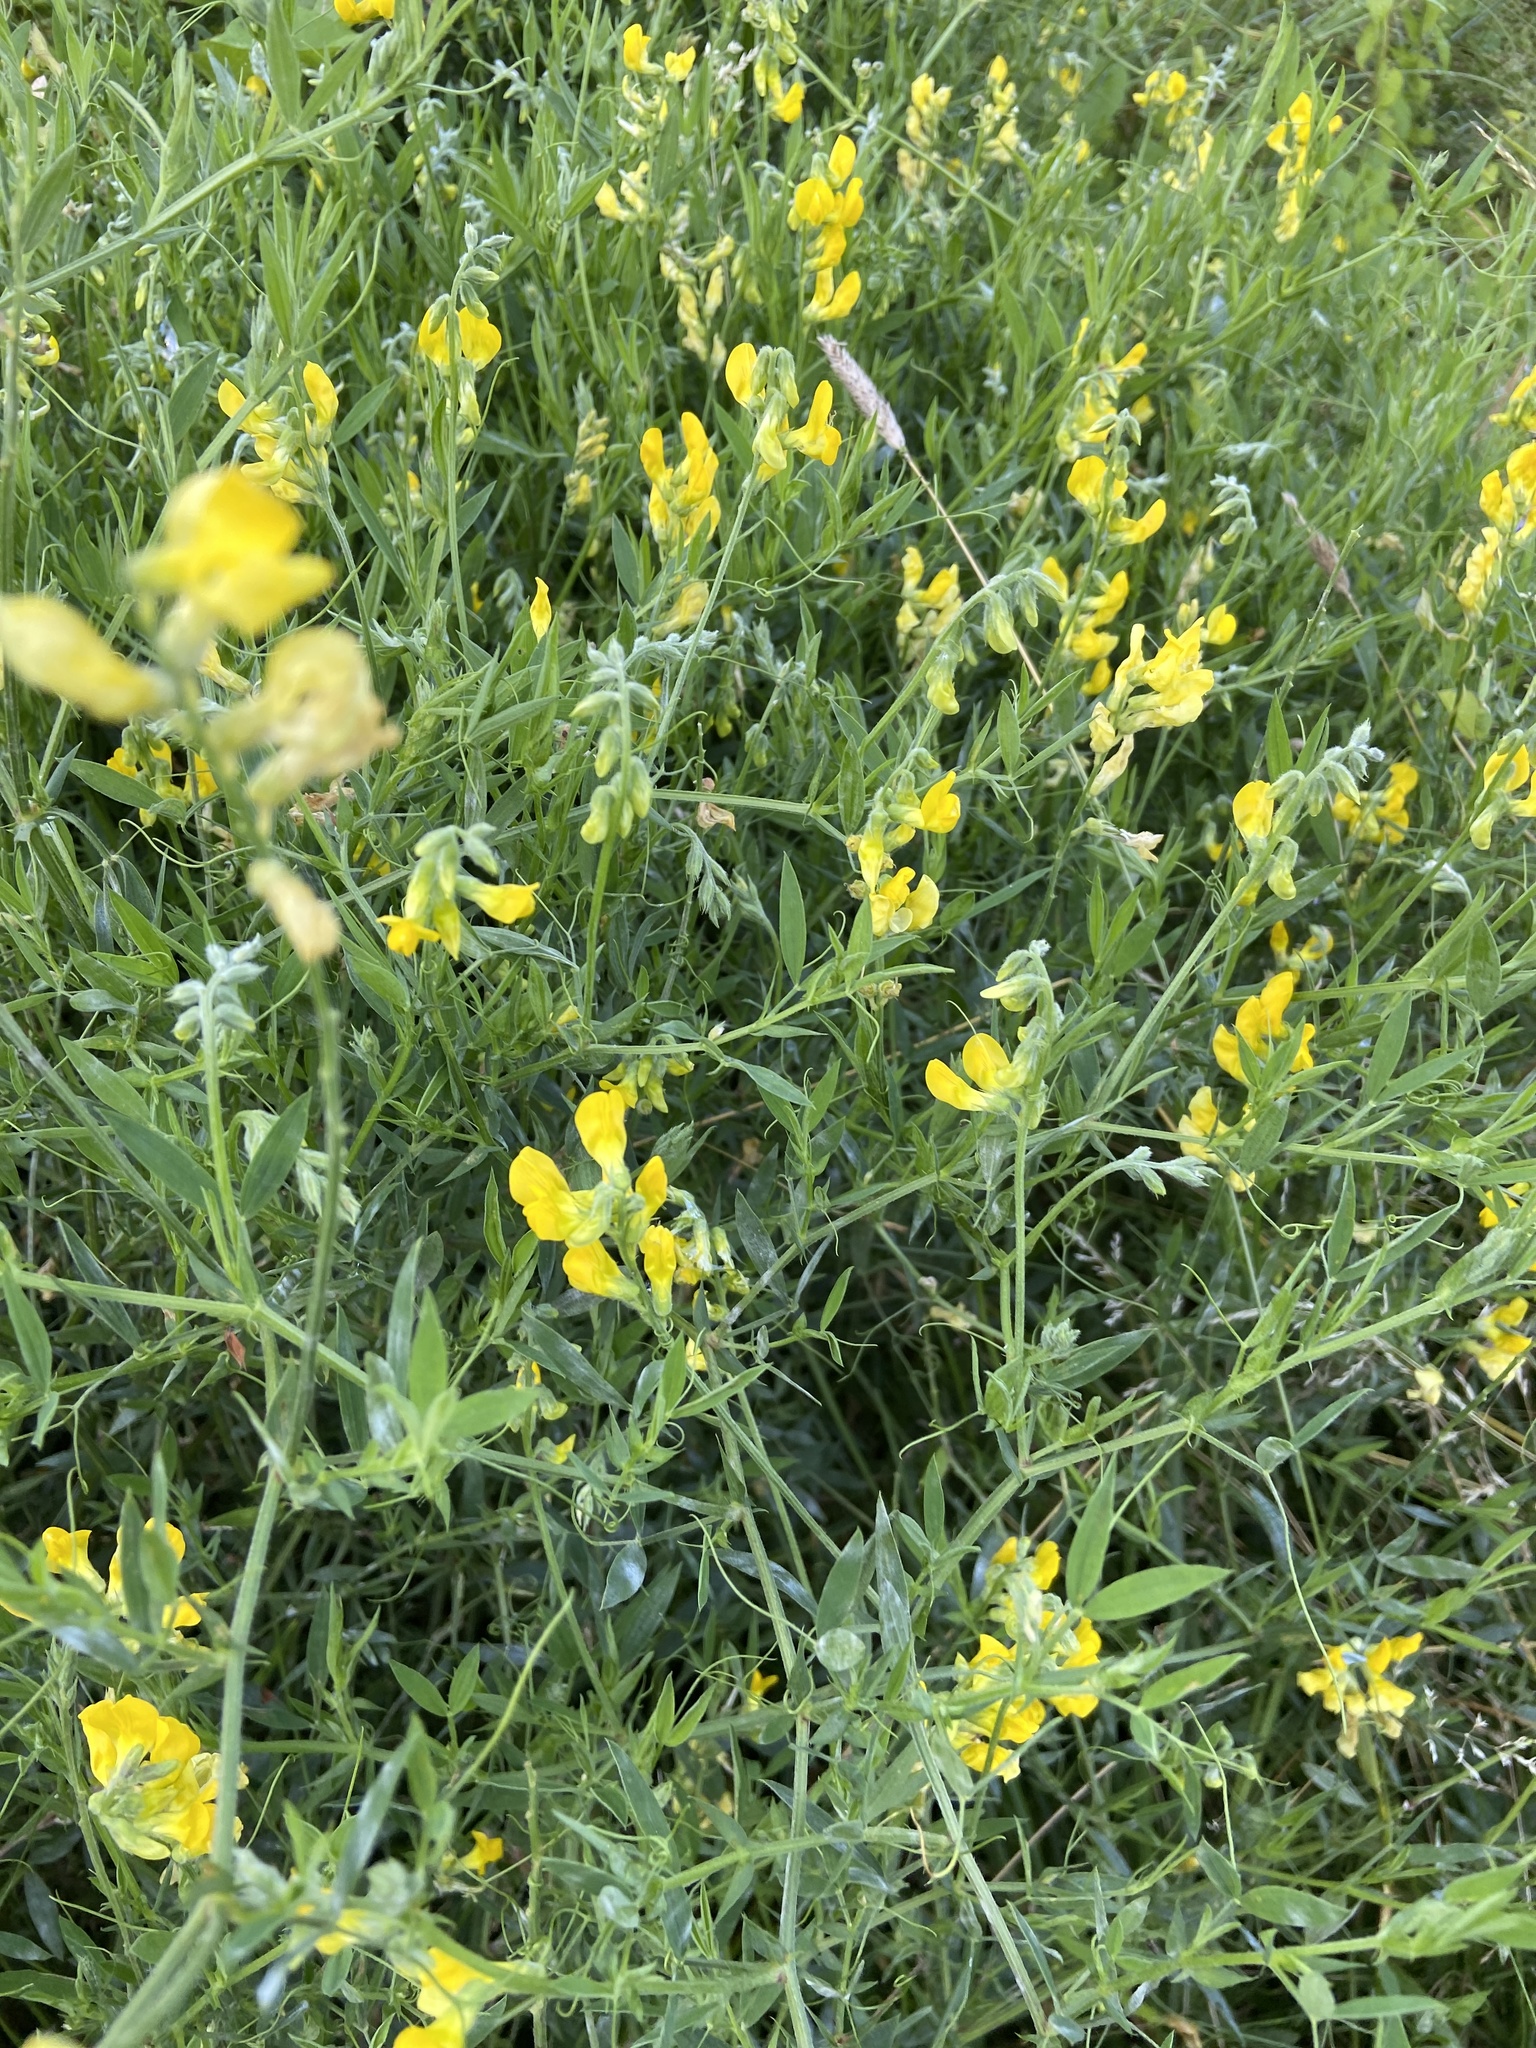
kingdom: Plantae
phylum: Tracheophyta
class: Magnoliopsida
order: Fabales
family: Fabaceae
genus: Lathyrus
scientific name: Lathyrus pratensis
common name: Meadow vetchling
